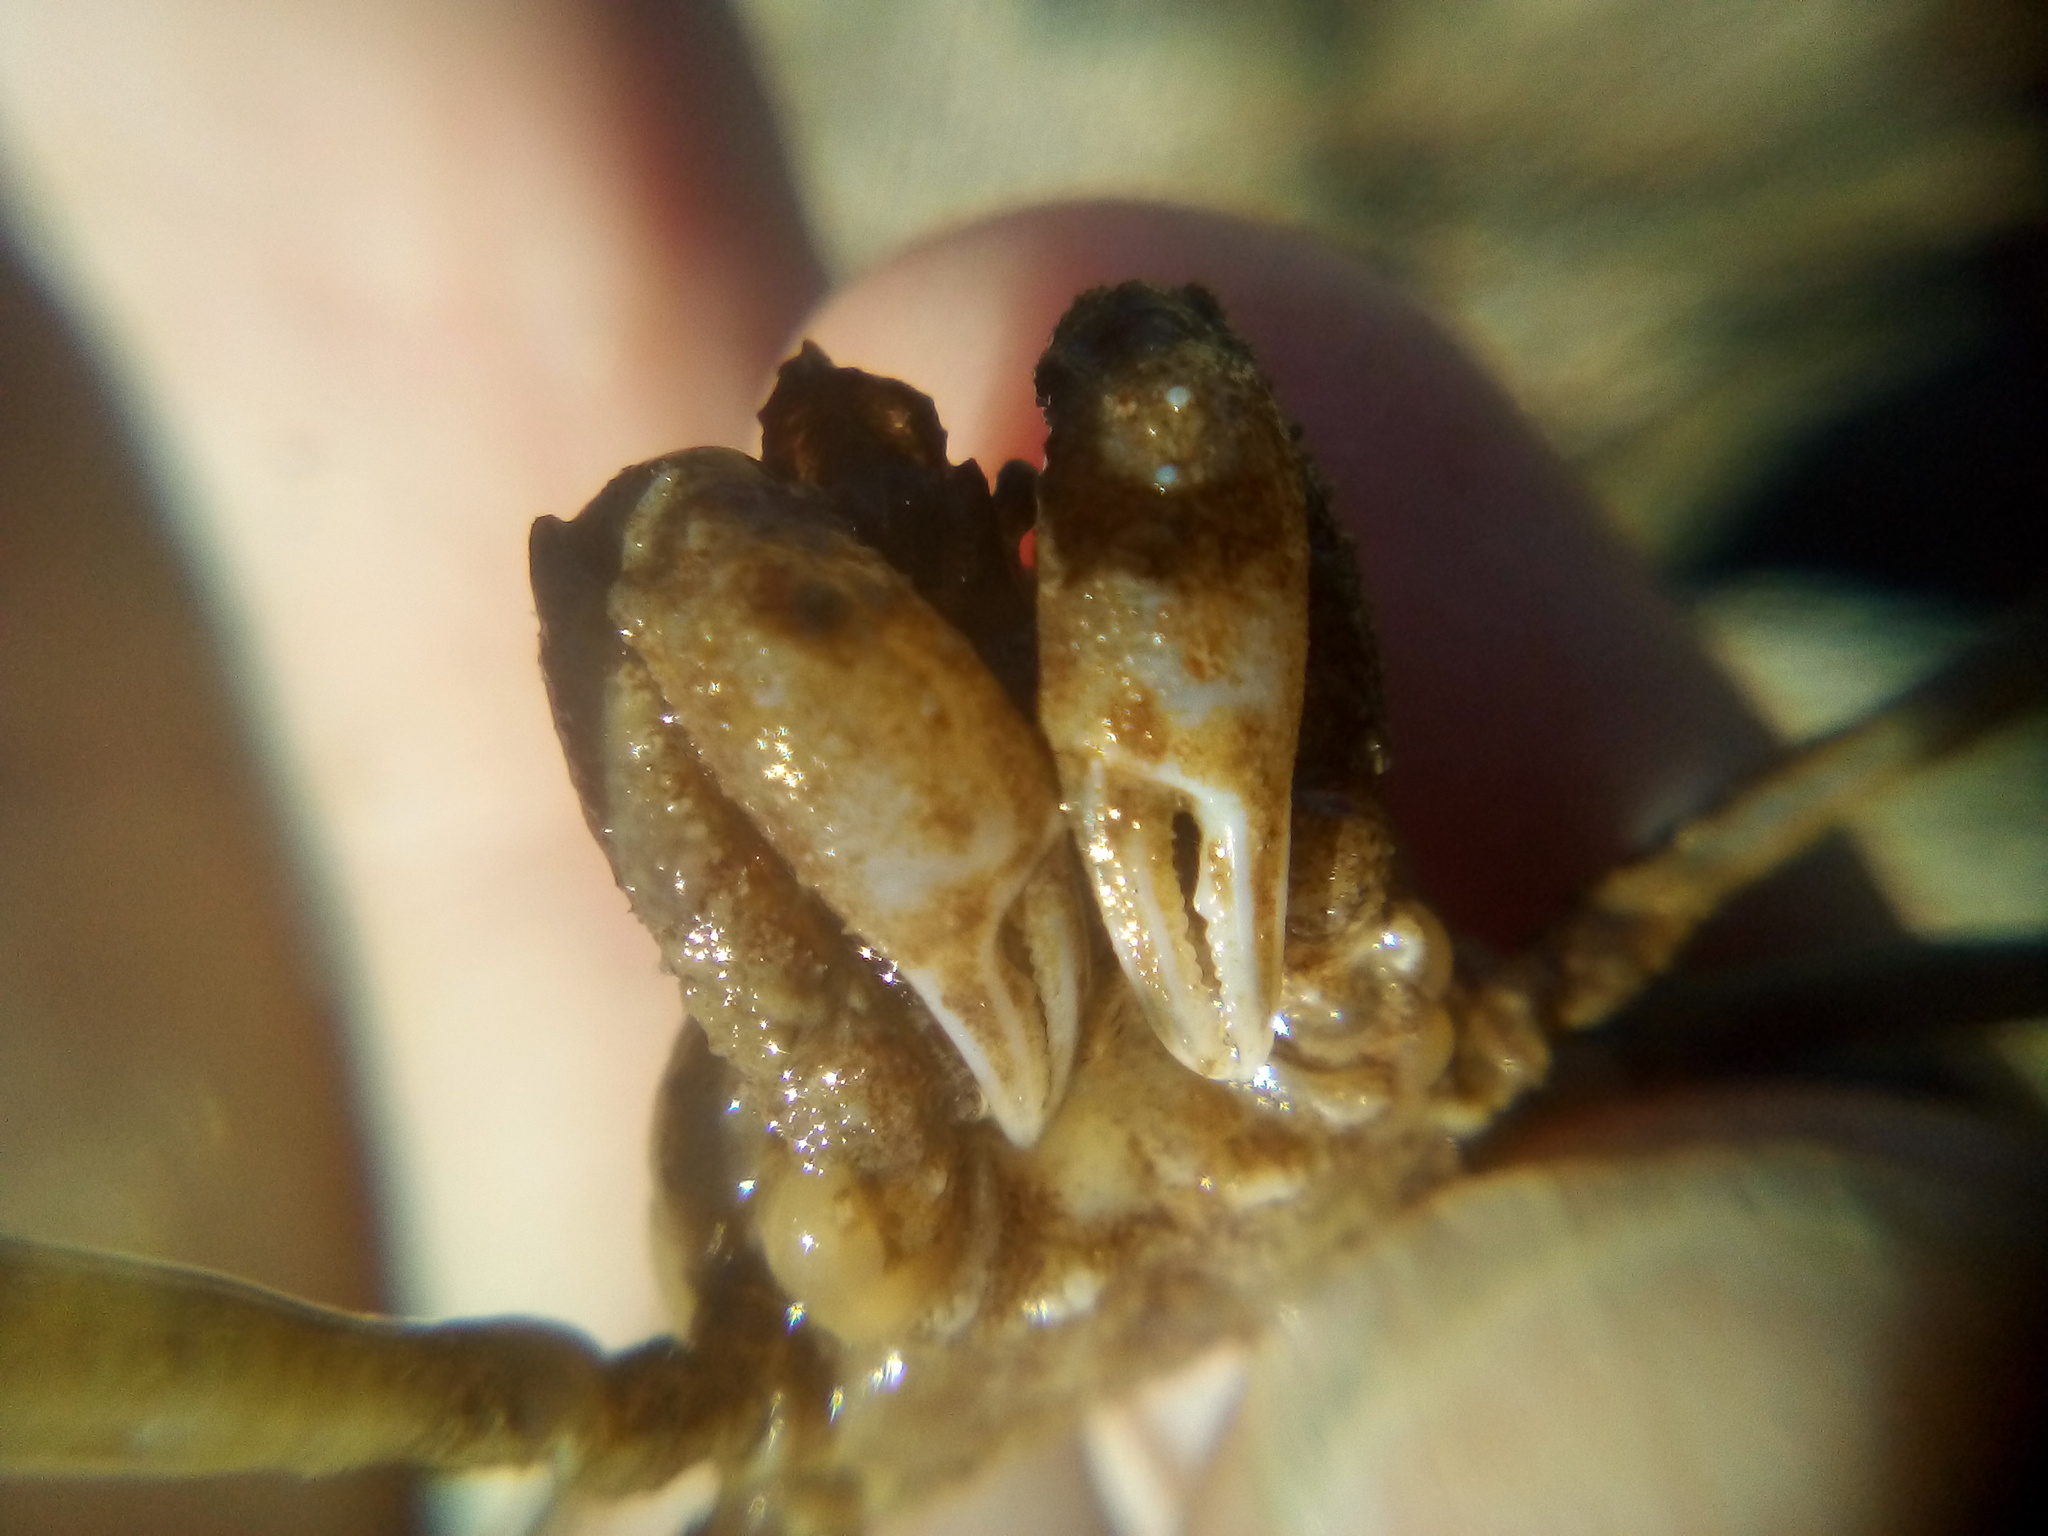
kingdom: Animalia
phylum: Arthropoda
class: Malacostraca
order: Decapoda
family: Inachoididae
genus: Pyromaia
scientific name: Pyromaia tuberculata
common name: Tuberculate pear crab
